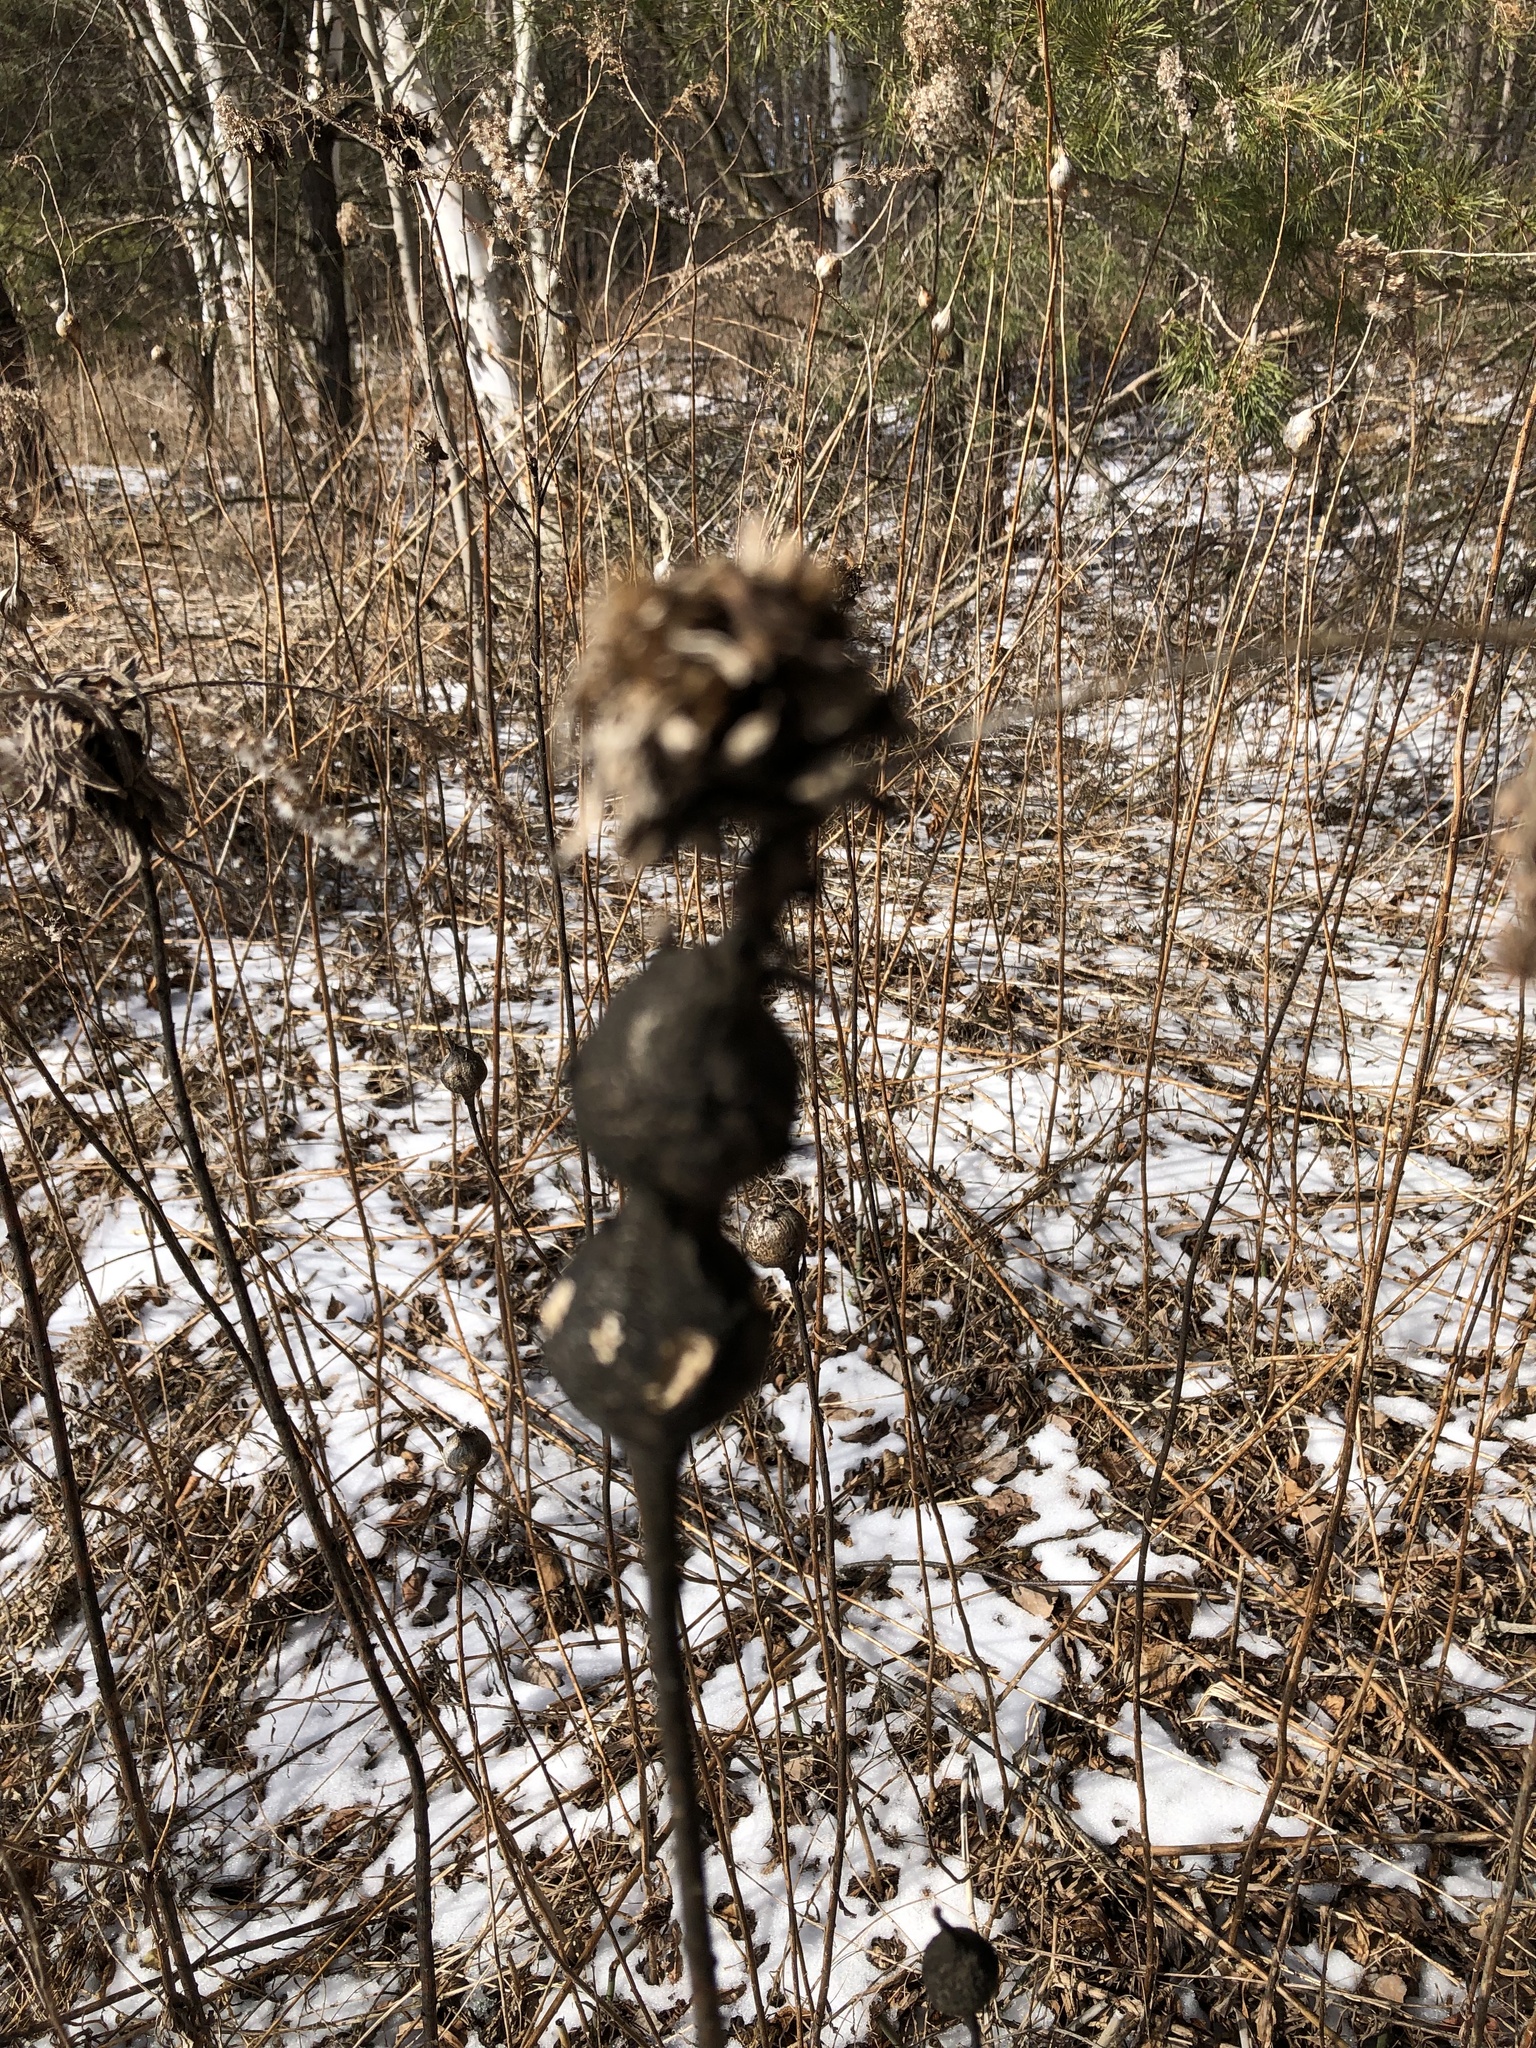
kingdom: Animalia
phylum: Arthropoda
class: Insecta
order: Diptera
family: Cecidomyiidae
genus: Rhopalomyia
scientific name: Rhopalomyia solidaginis
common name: Goldenrod bunch gall midge
